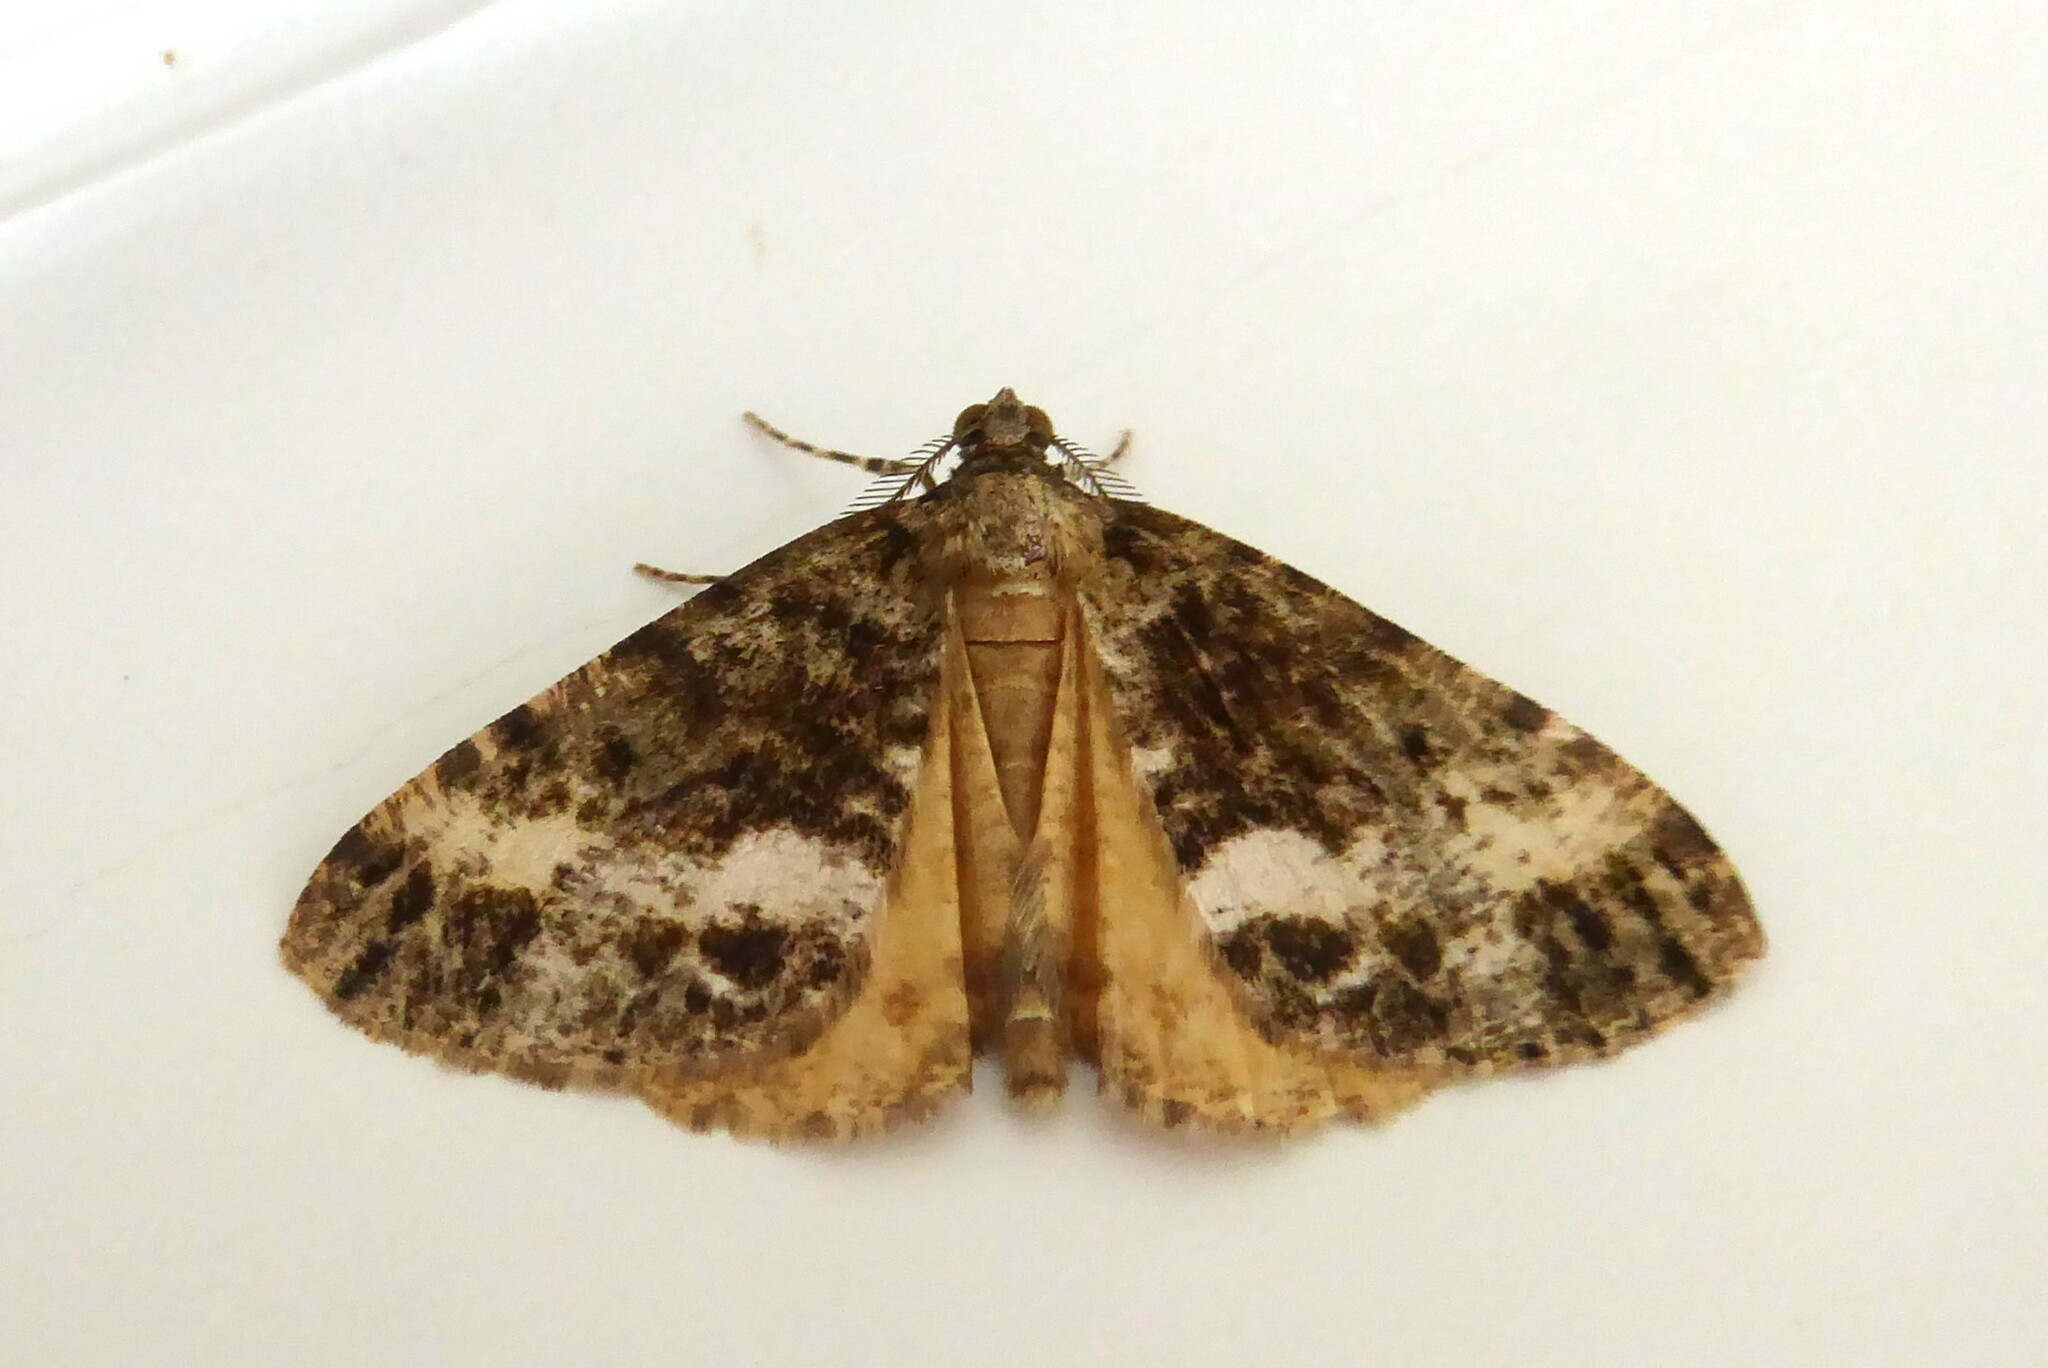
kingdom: Animalia
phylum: Arthropoda
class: Insecta
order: Lepidoptera
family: Geometridae
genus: Pseudocoremia
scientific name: Pseudocoremia lactiflua
